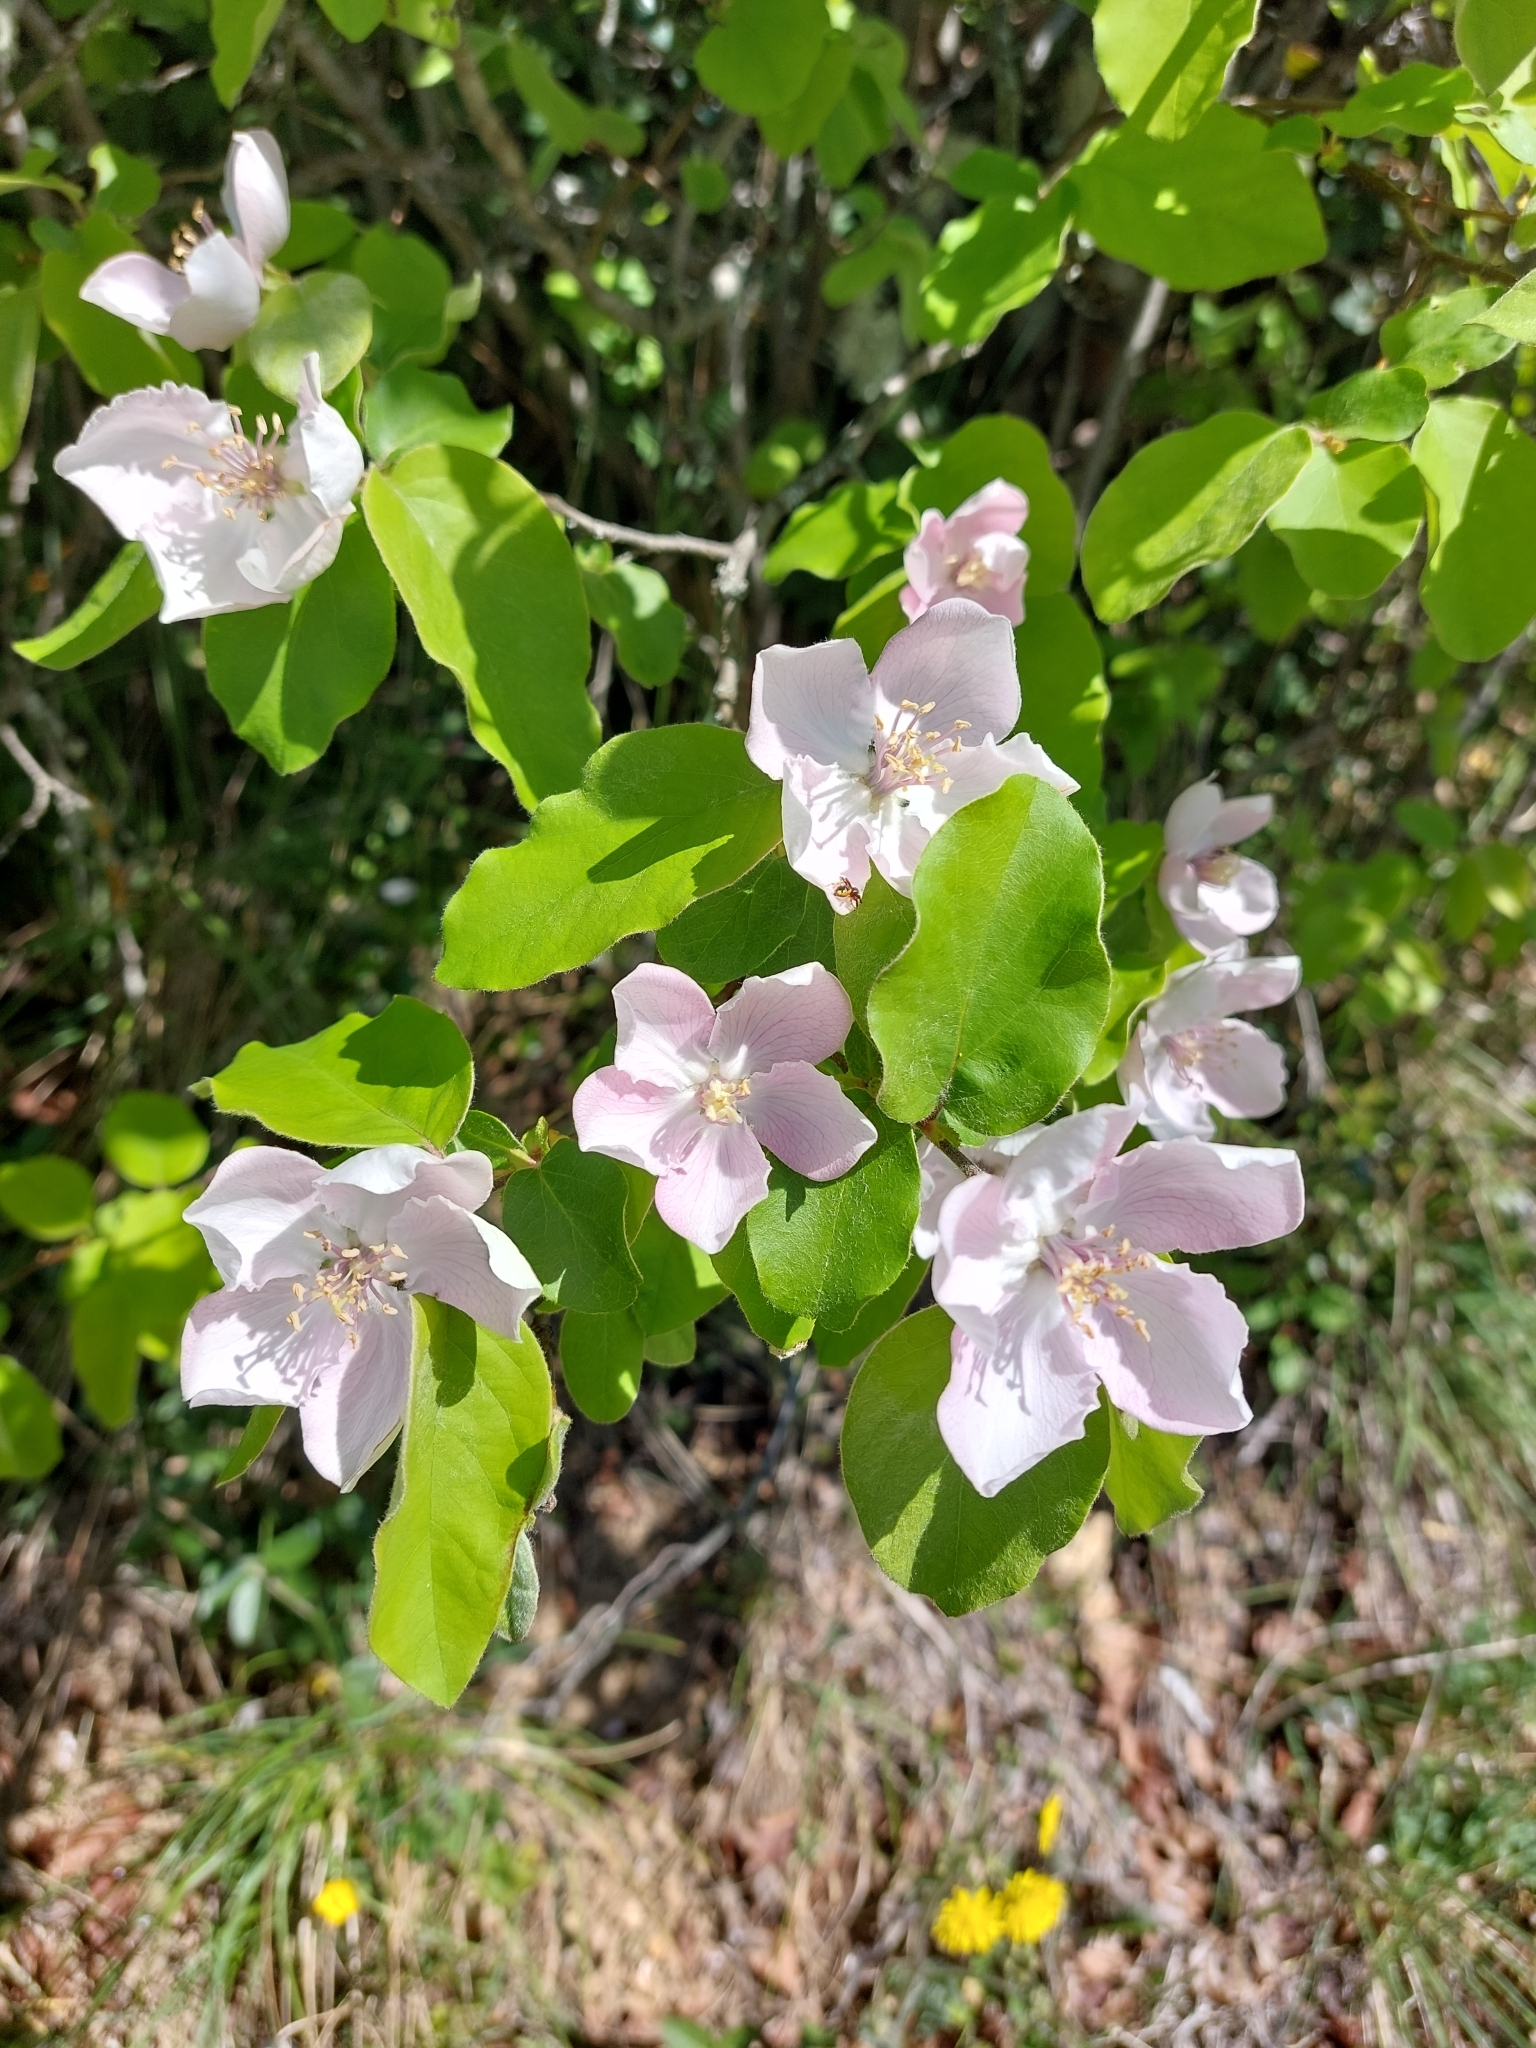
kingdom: Plantae
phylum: Tracheophyta
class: Magnoliopsida
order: Rosales
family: Rosaceae
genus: Cydonia
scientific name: Cydonia oblonga
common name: Quince
